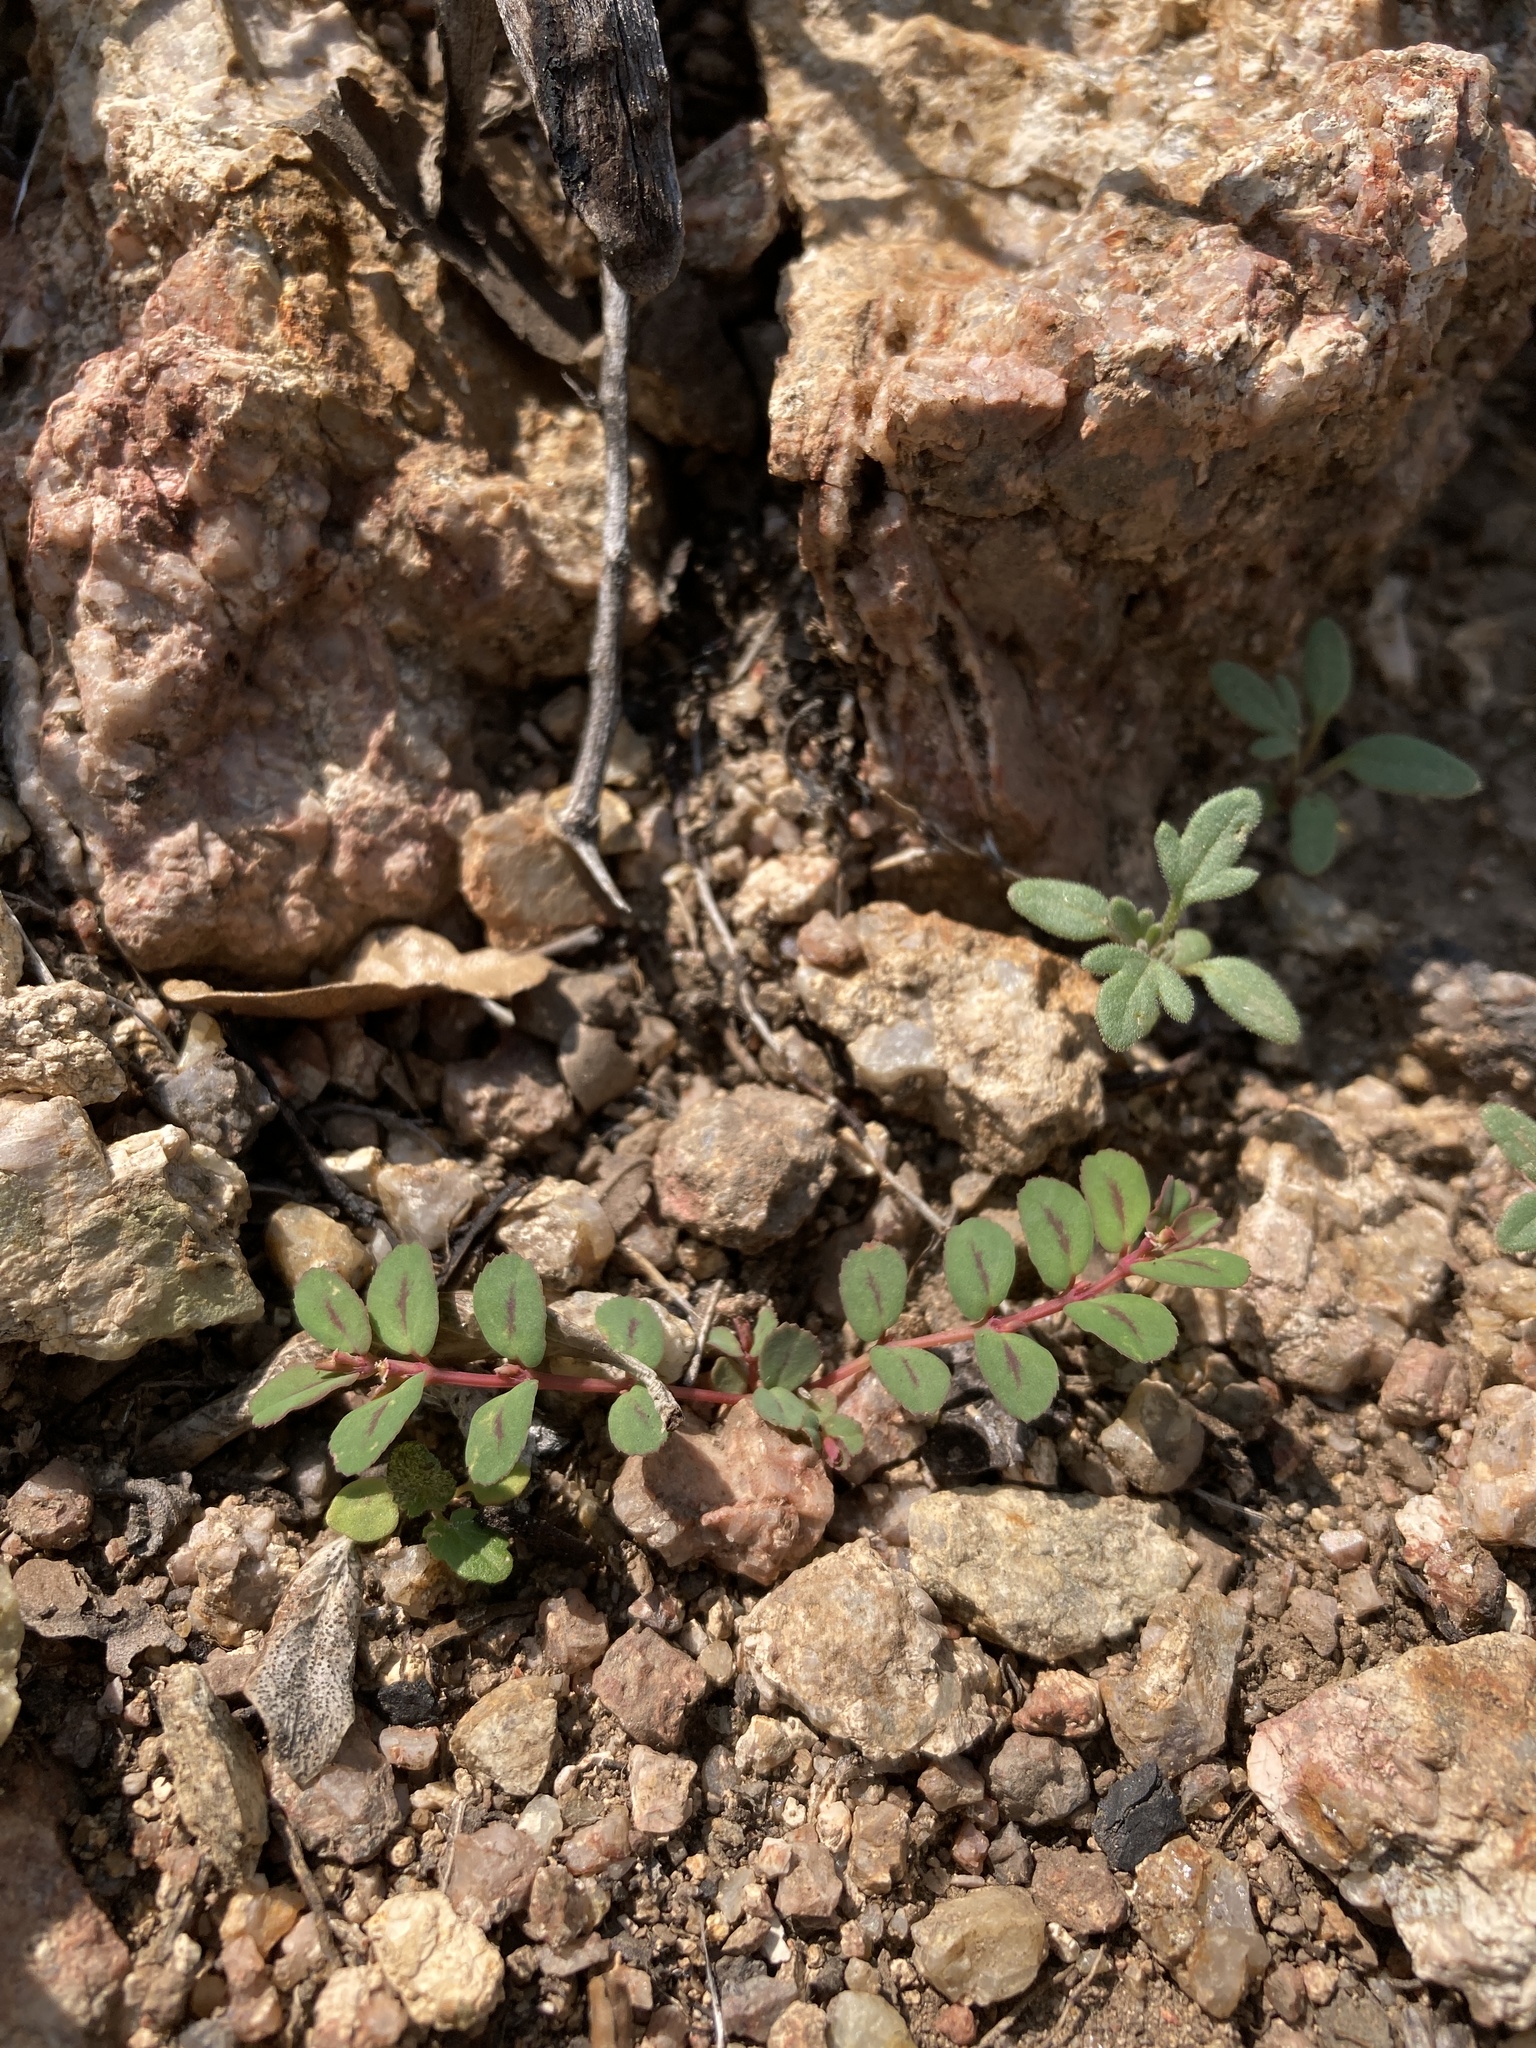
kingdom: Plantae
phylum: Tracheophyta
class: Magnoliopsida
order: Malpighiales
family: Euphorbiaceae
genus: Euphorbia
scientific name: Euphorbia serpillifolia
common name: Thyme-leaf spurge
